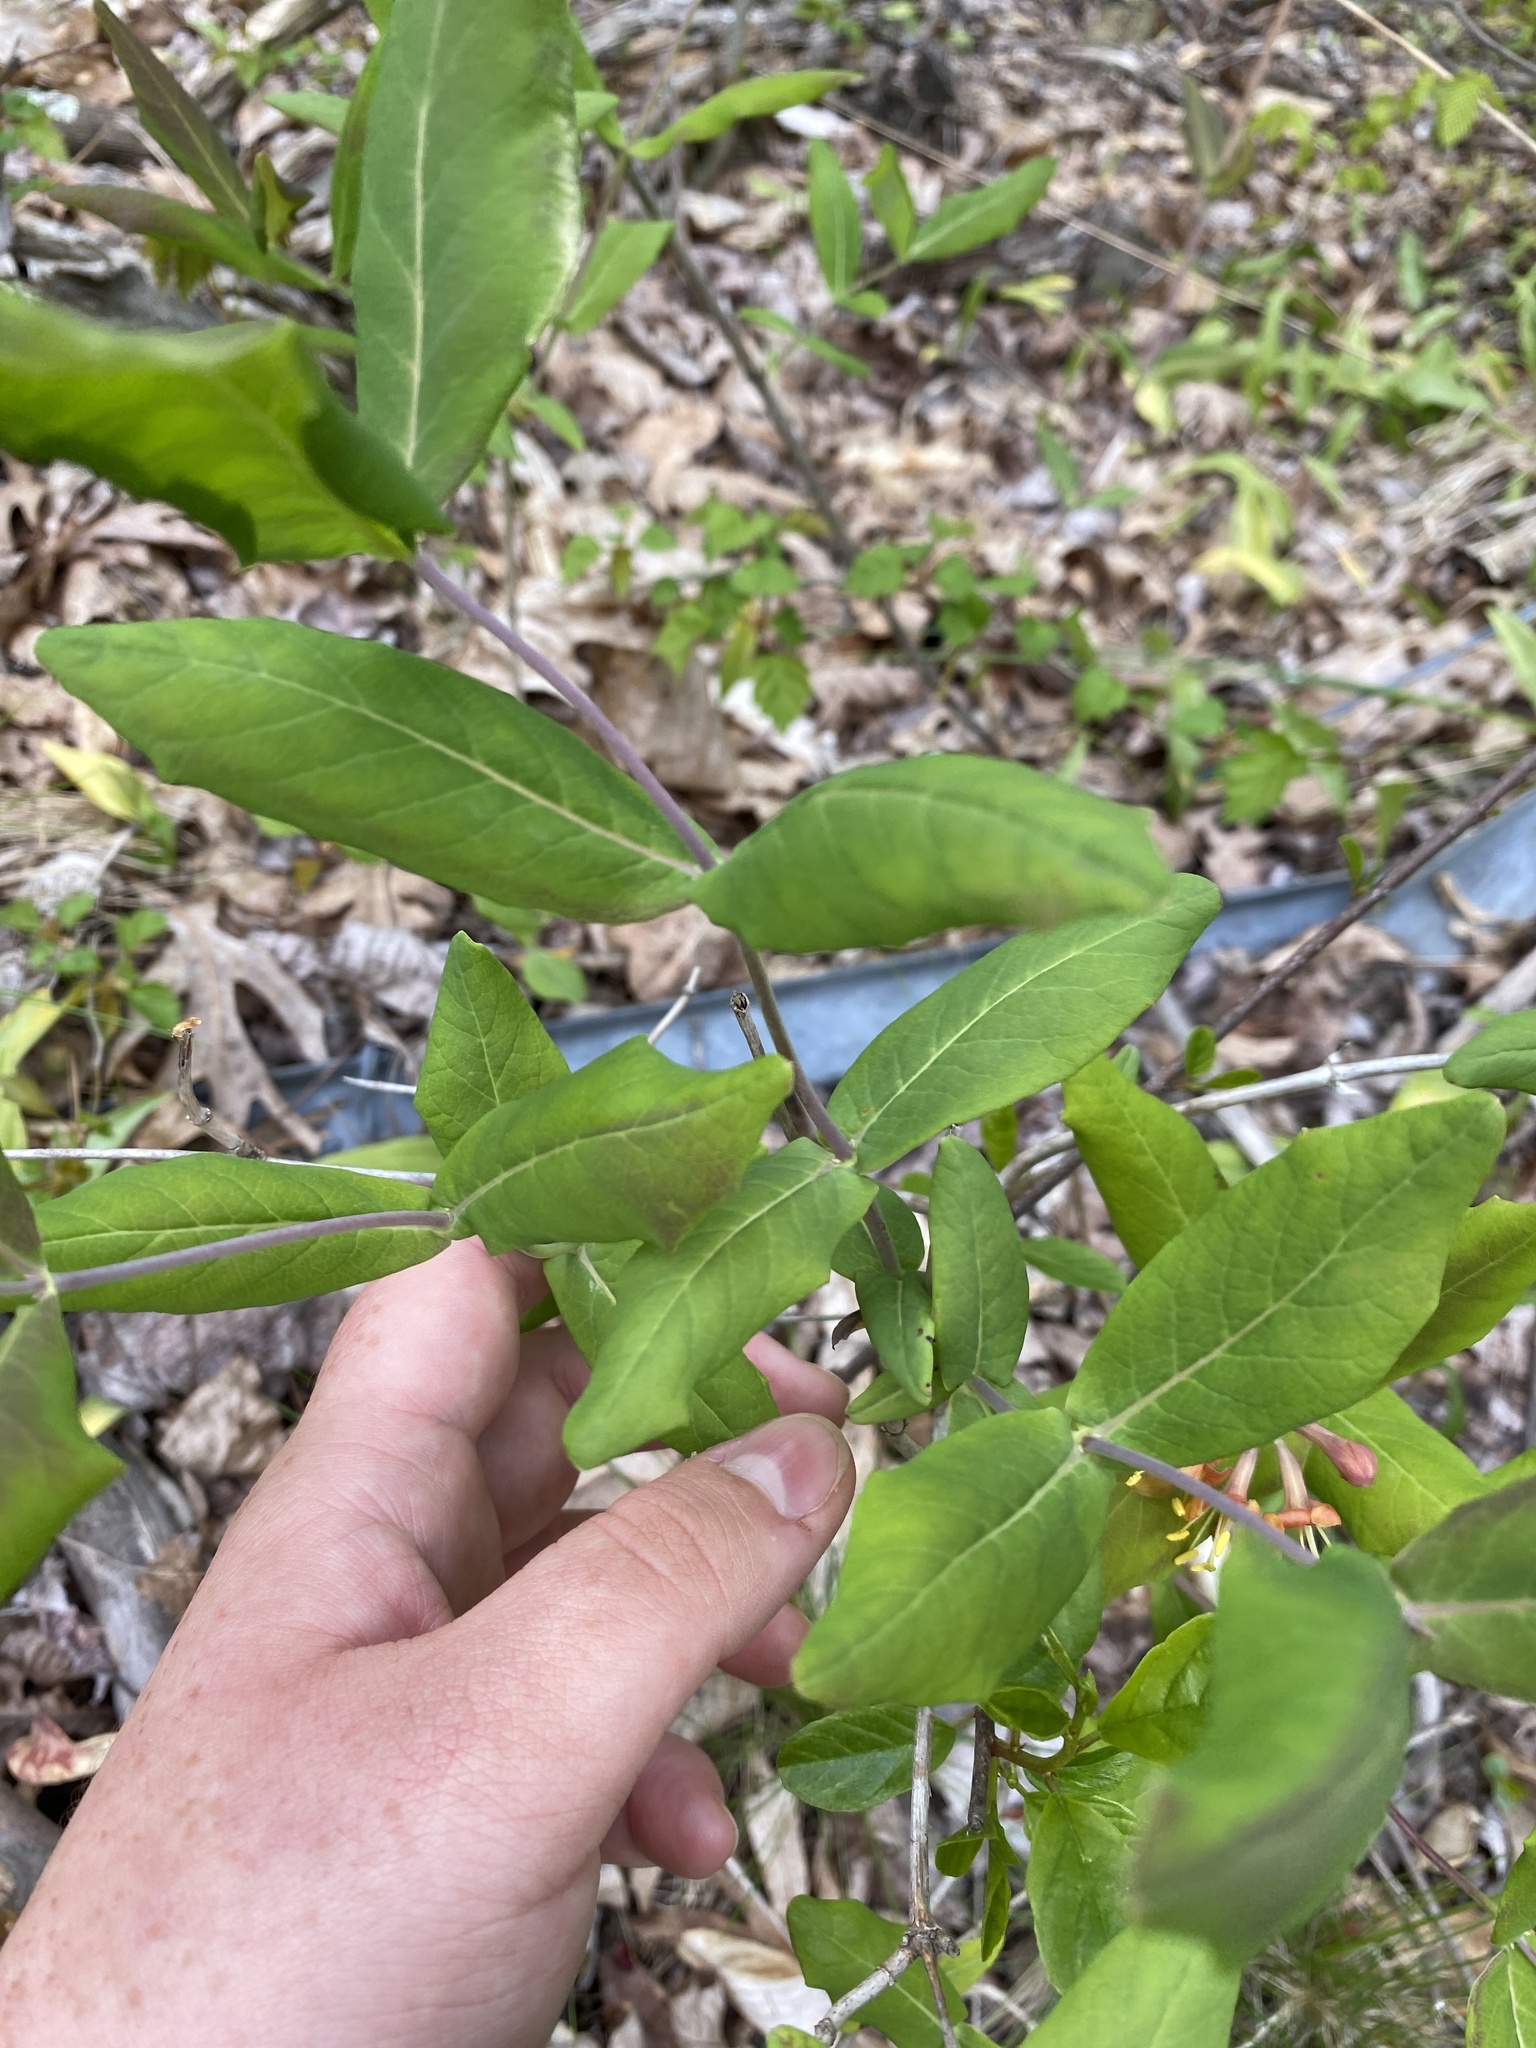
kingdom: Plantae
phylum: Tracheophyta
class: Magnoliopsida
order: Dipsacales
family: Caprifoliaceae
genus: Lonicera
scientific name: Lonicera dioica
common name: Limber honeysuckle
